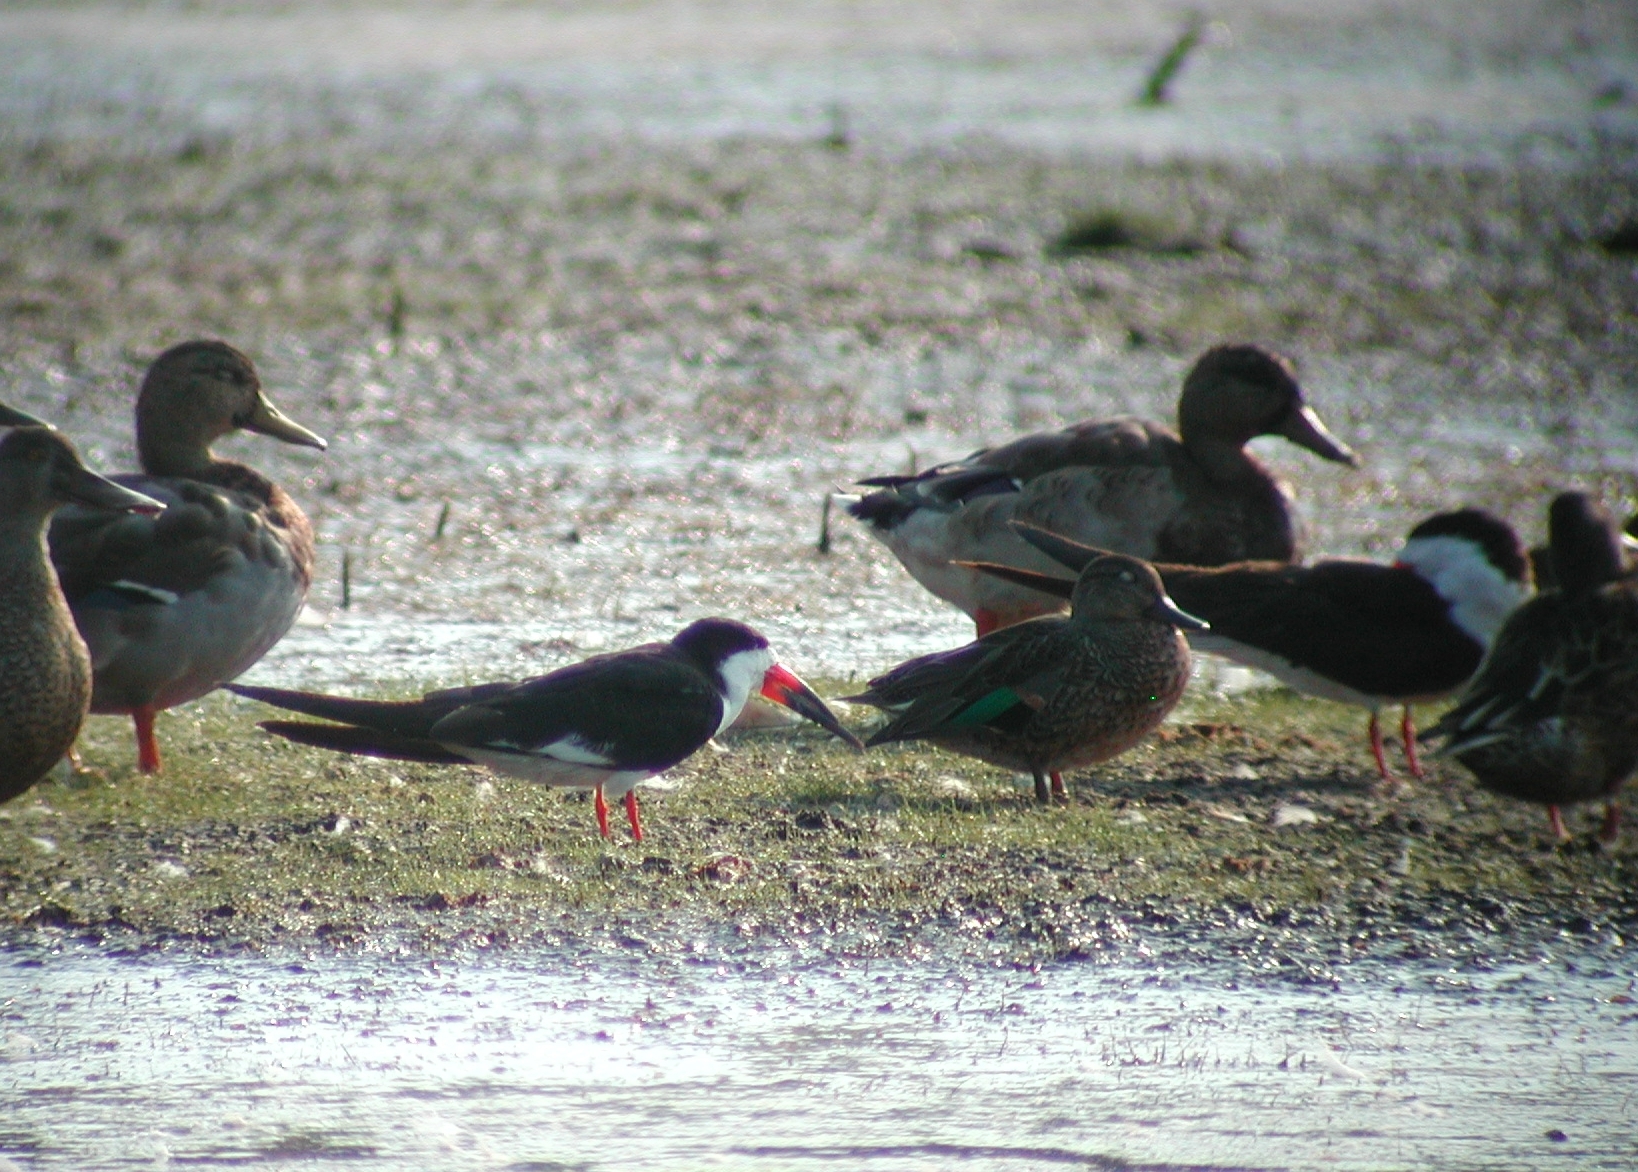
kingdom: Animalia
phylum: Chordata
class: Aves
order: Charadriiformes
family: Laridae
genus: Rynchops
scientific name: Rynchops niger
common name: Black skimmer
